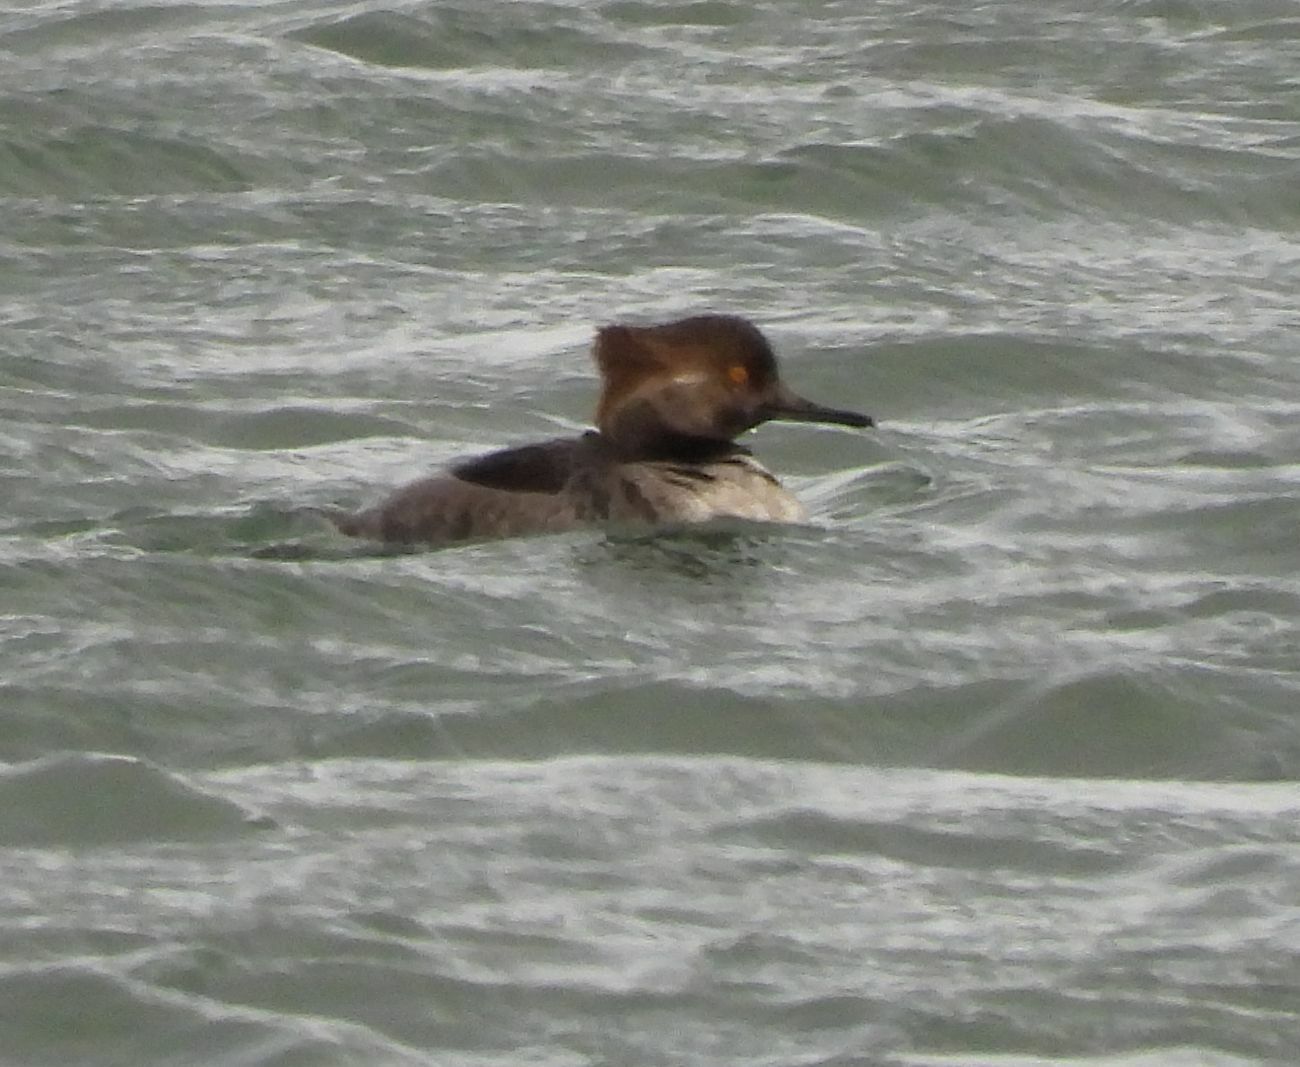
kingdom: Animalia
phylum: Chordata
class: Aves
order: Anseriformes
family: Anatidae
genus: Lophodytes
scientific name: Lophodytes cucullatus
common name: Hooded merganser
